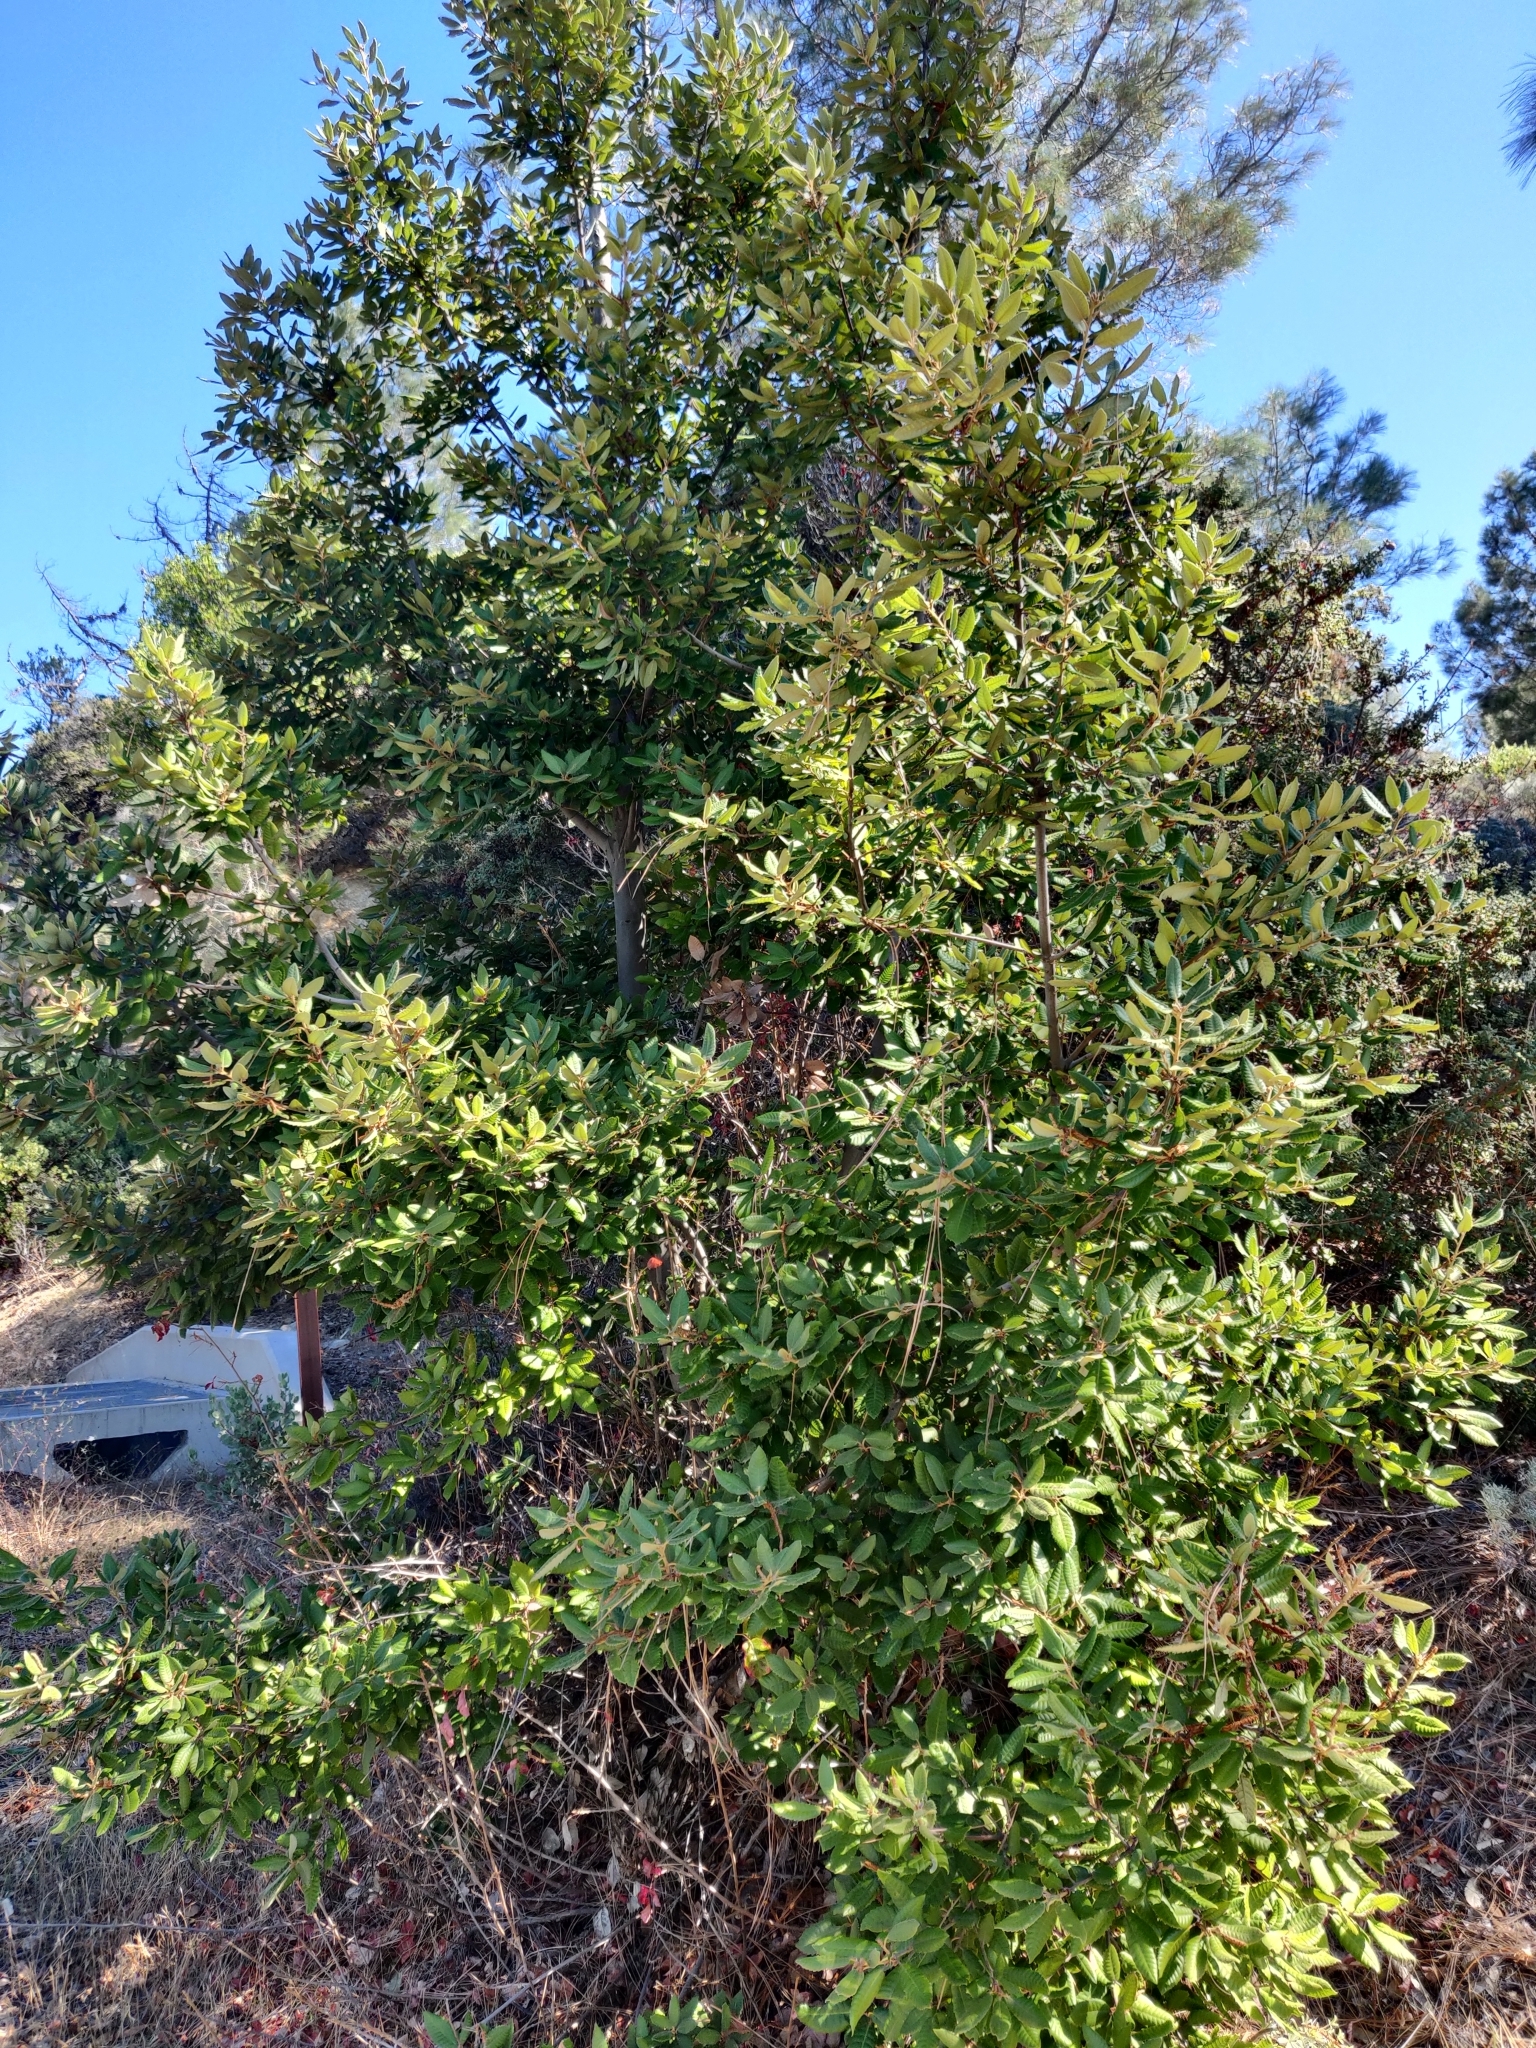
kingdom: Plantae
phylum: Tracheophyta
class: Magnoliopsida
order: Fagales
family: Fagaceae
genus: Notholithocarpus
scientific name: Notholithocarpus densiflorus
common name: Tan bark oak
